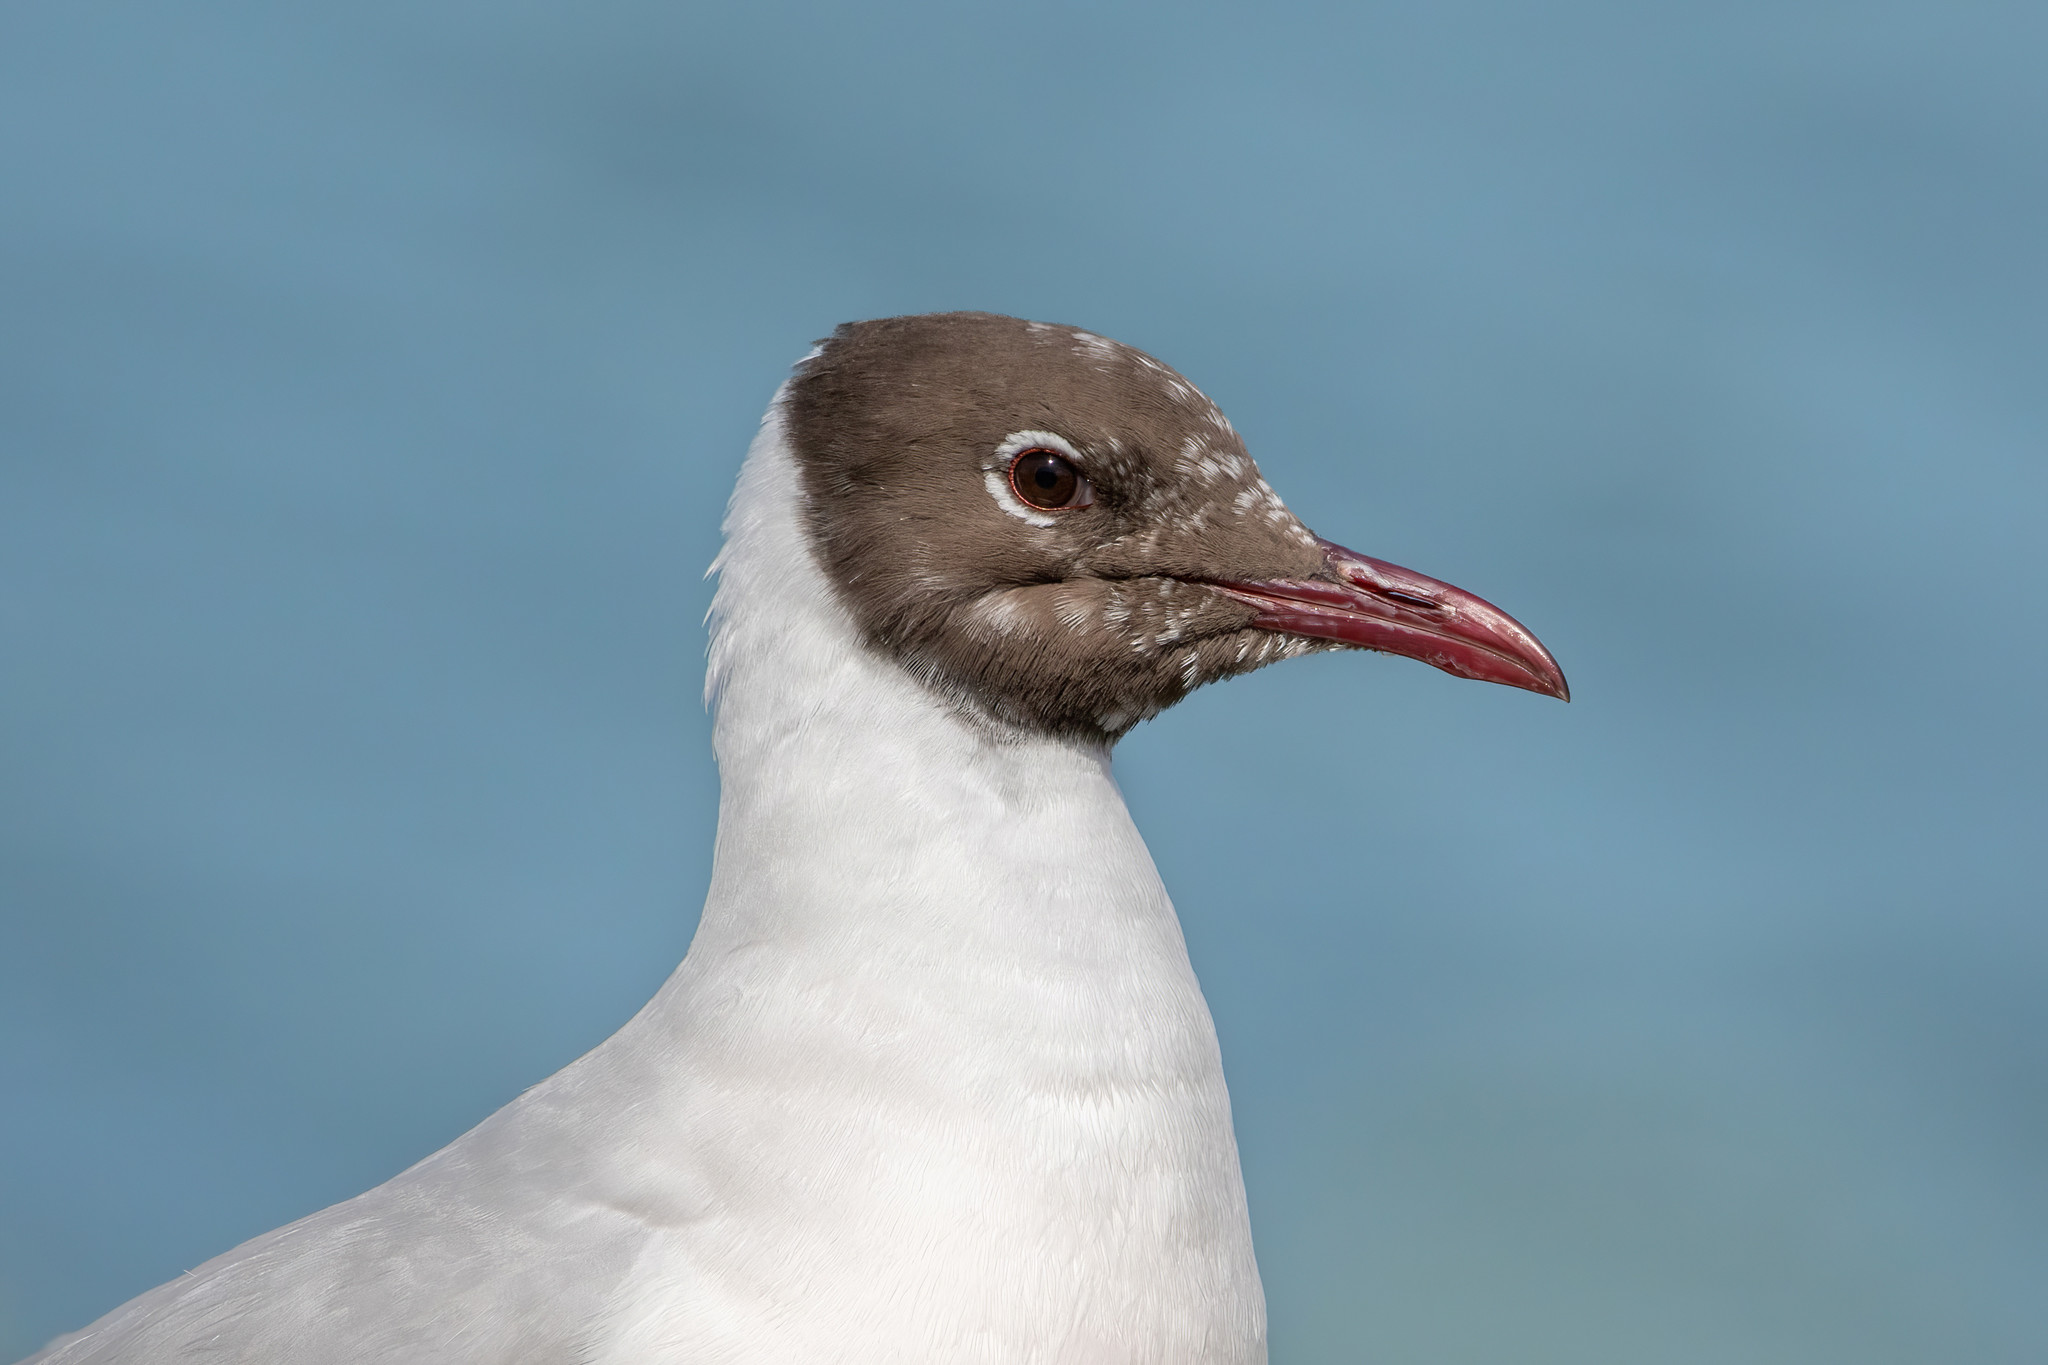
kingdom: Animalia
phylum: Chordata
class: Aves
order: Charadriiformes
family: Laridae
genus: Chroicocephalus
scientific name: Chroicocephalus ridibundus
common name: Black-headed gull
